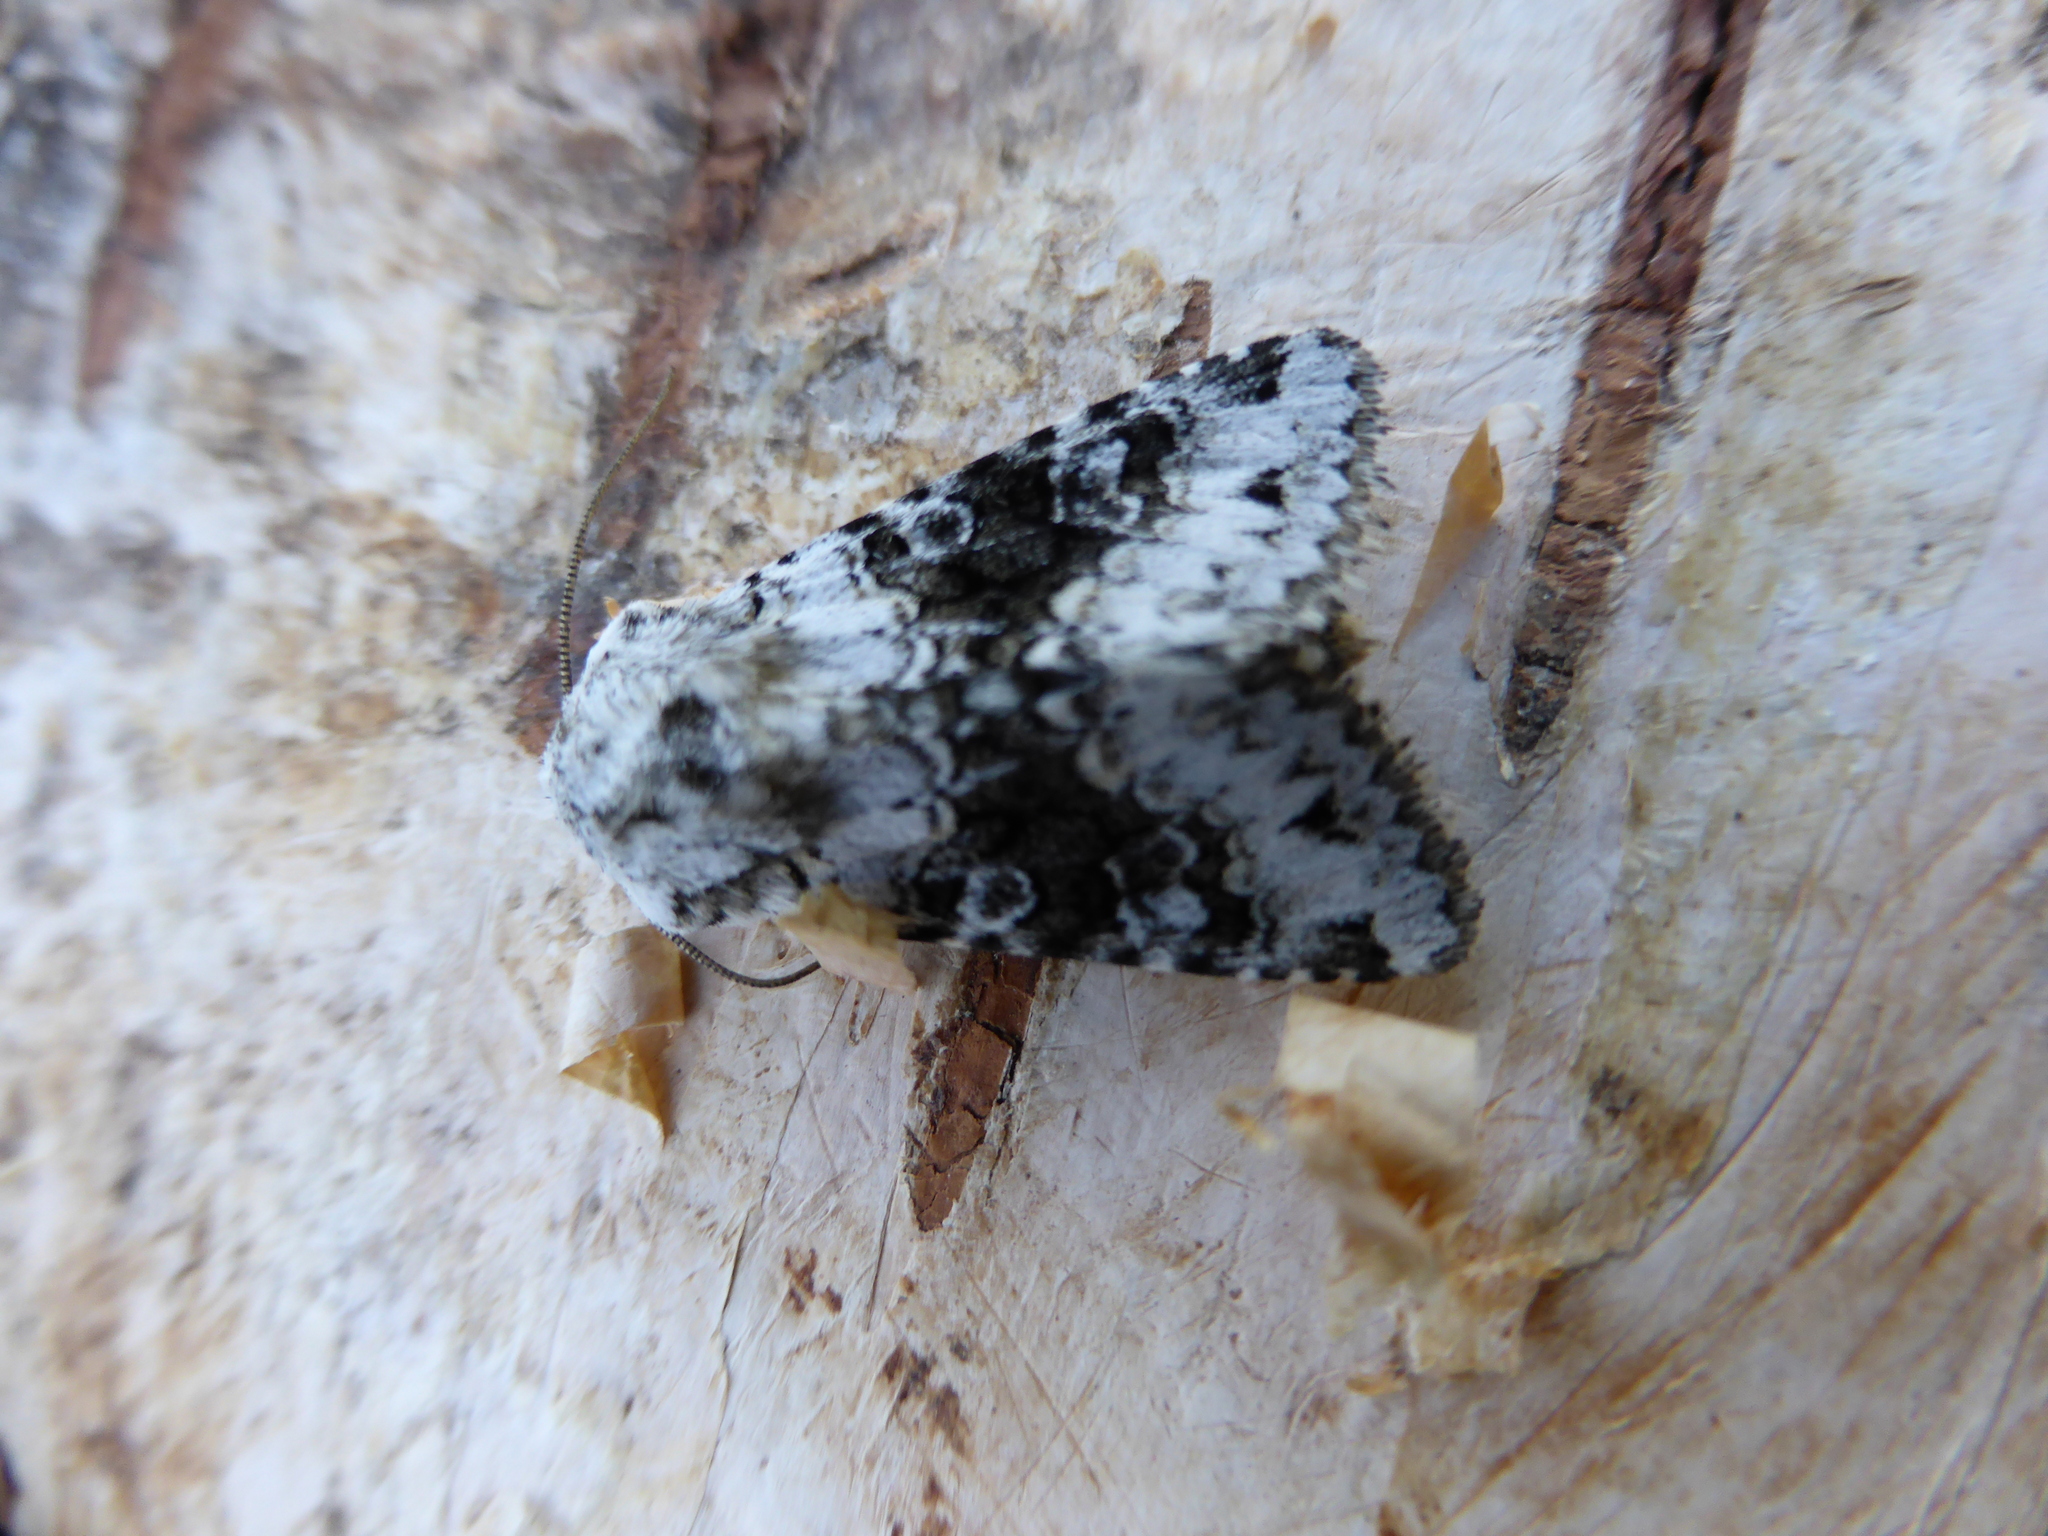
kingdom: Animalia
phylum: Arthropoda
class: Insecta
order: Lepidoptera
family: Noctuidae
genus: Hecatera
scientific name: Hecatera bicolorata
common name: Broad-barred white
